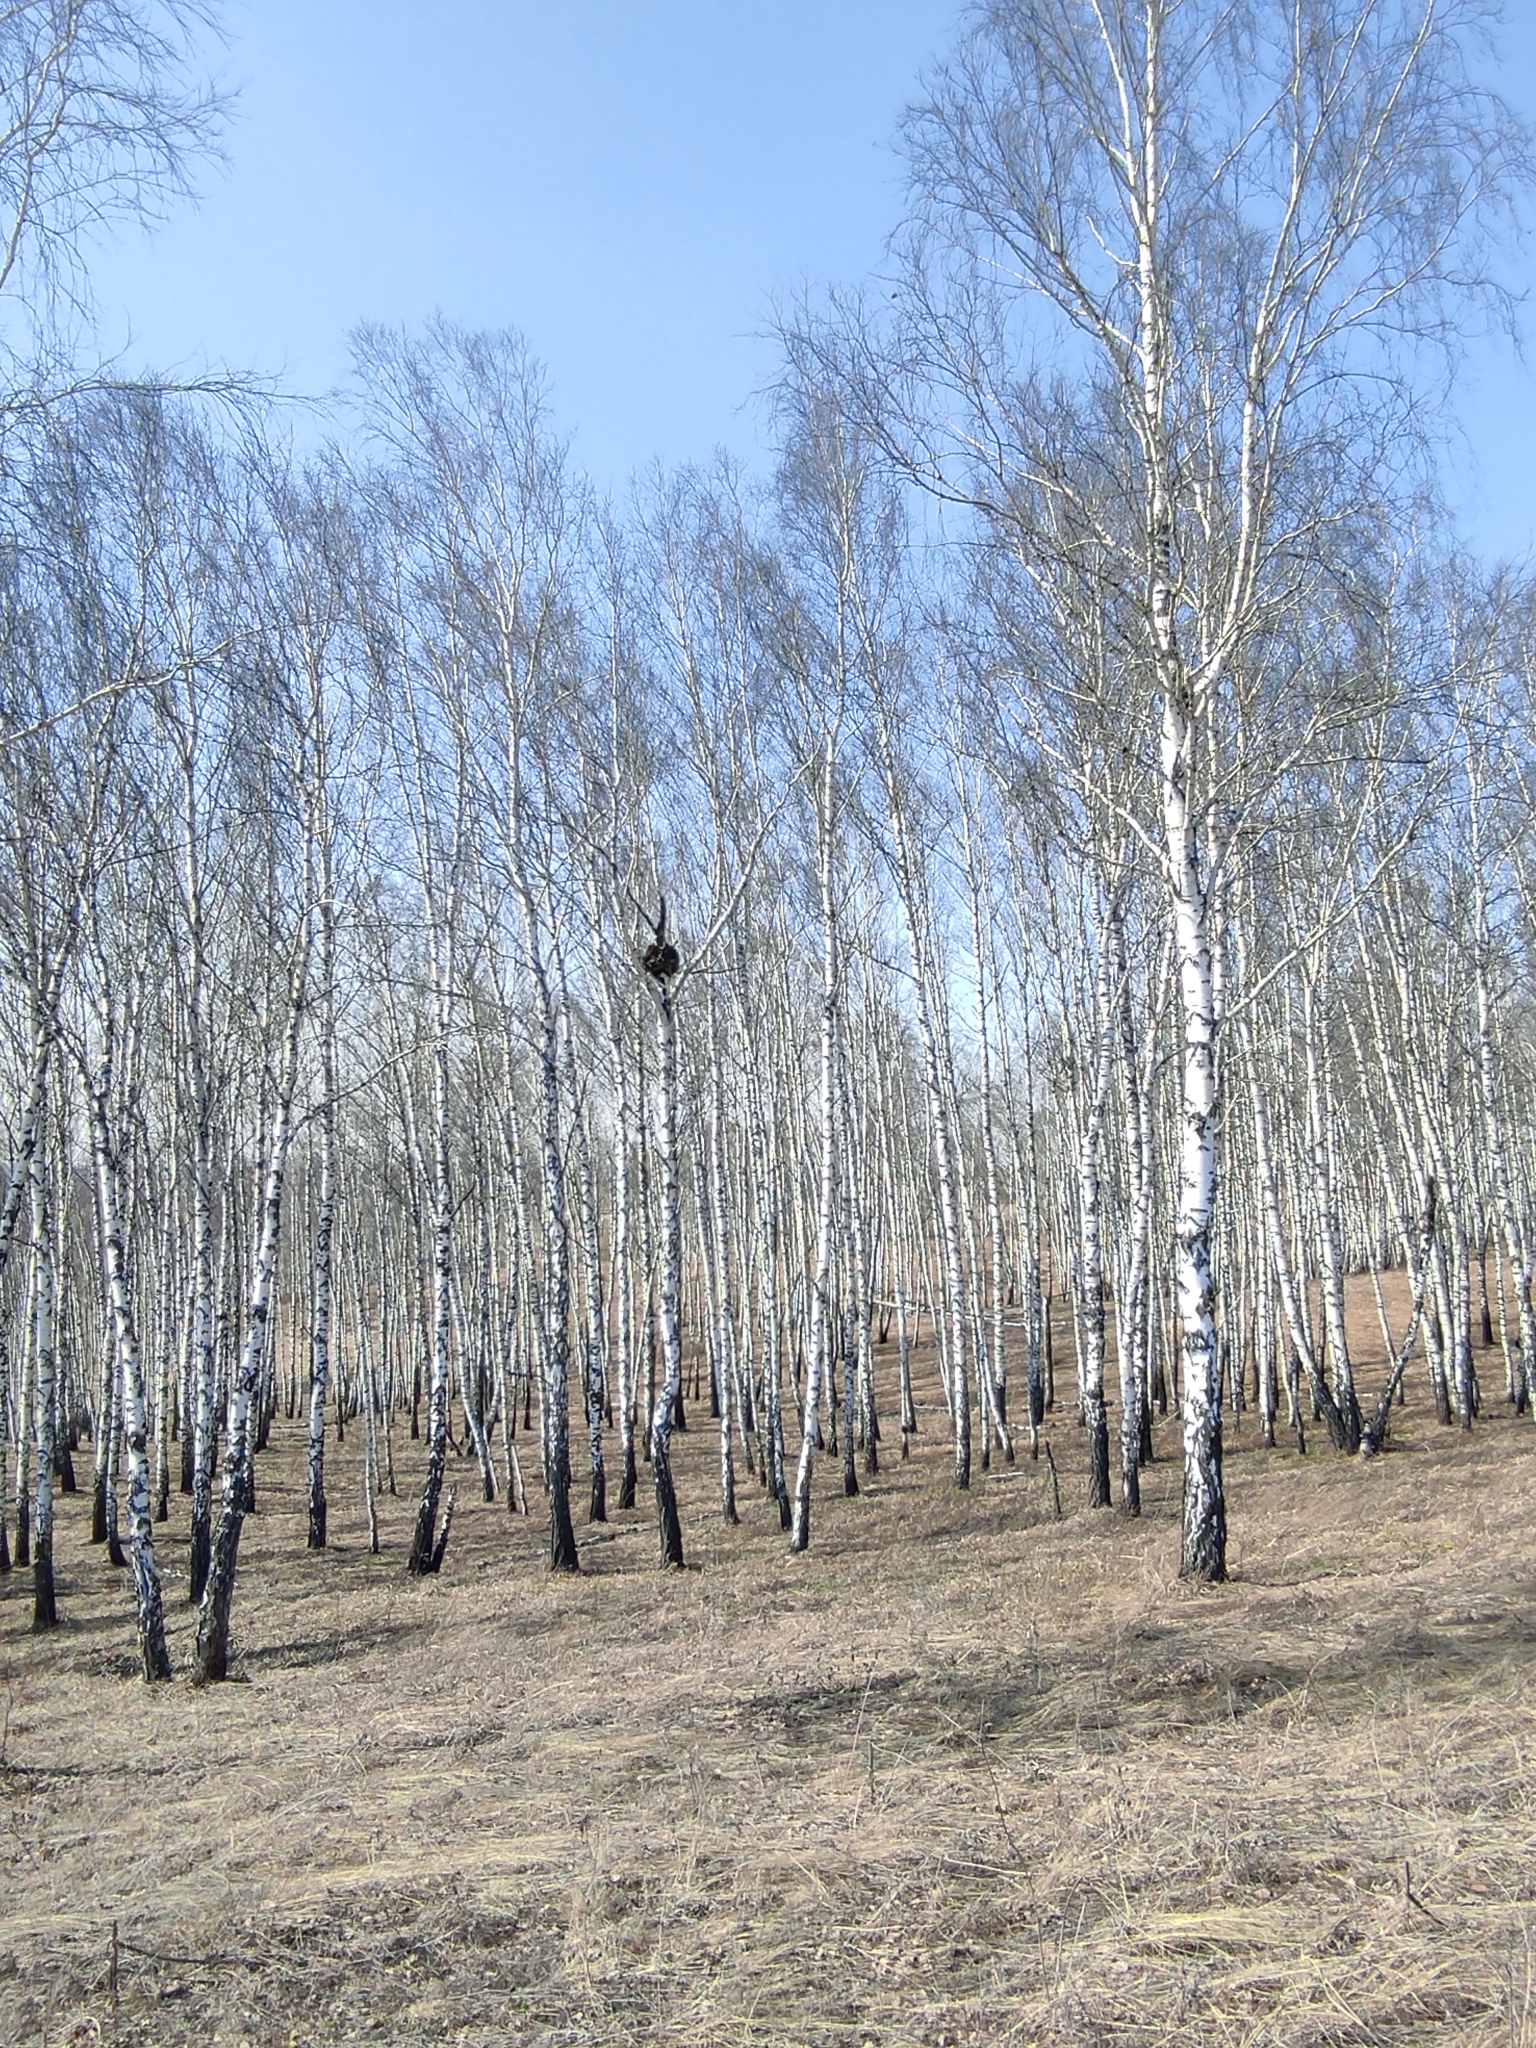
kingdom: Plantae
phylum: Tracheophyta
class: Magnoliopsida
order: Fagales
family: Betulaceae
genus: Betula
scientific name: Betula pendula
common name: Silver birch
